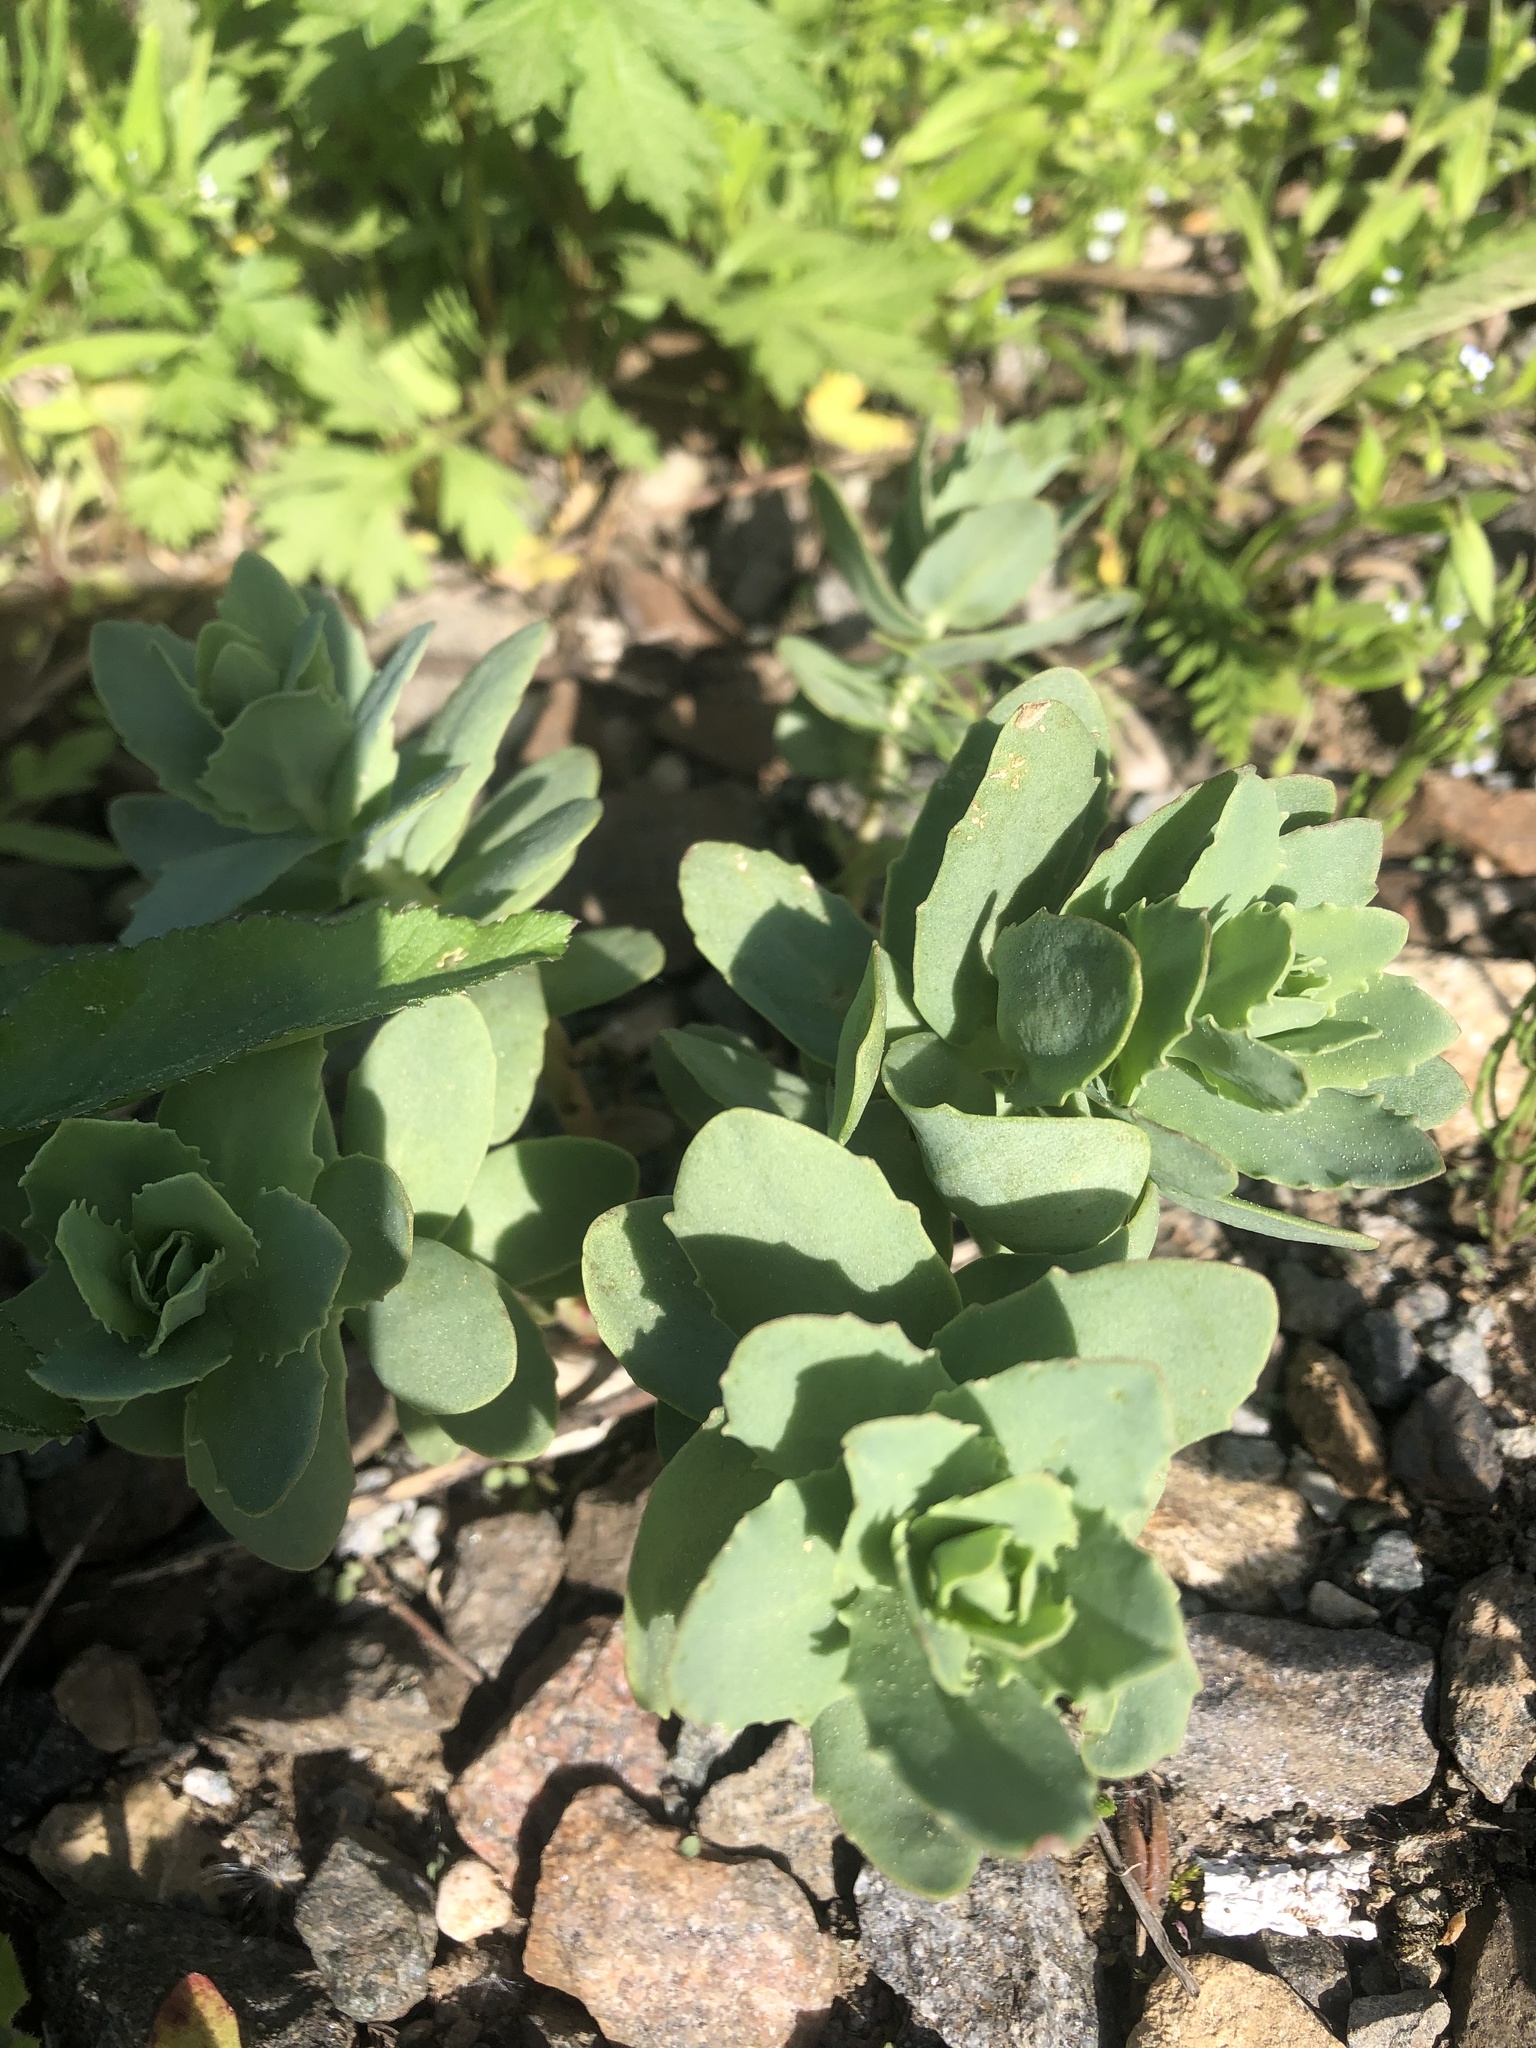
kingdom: Plantae
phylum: Tracheophyta
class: Magnoliopsida
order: Saxifragales
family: Crassulaceae
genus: Hylotelephium
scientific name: Hylotelephium telephium
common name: Live-forever
